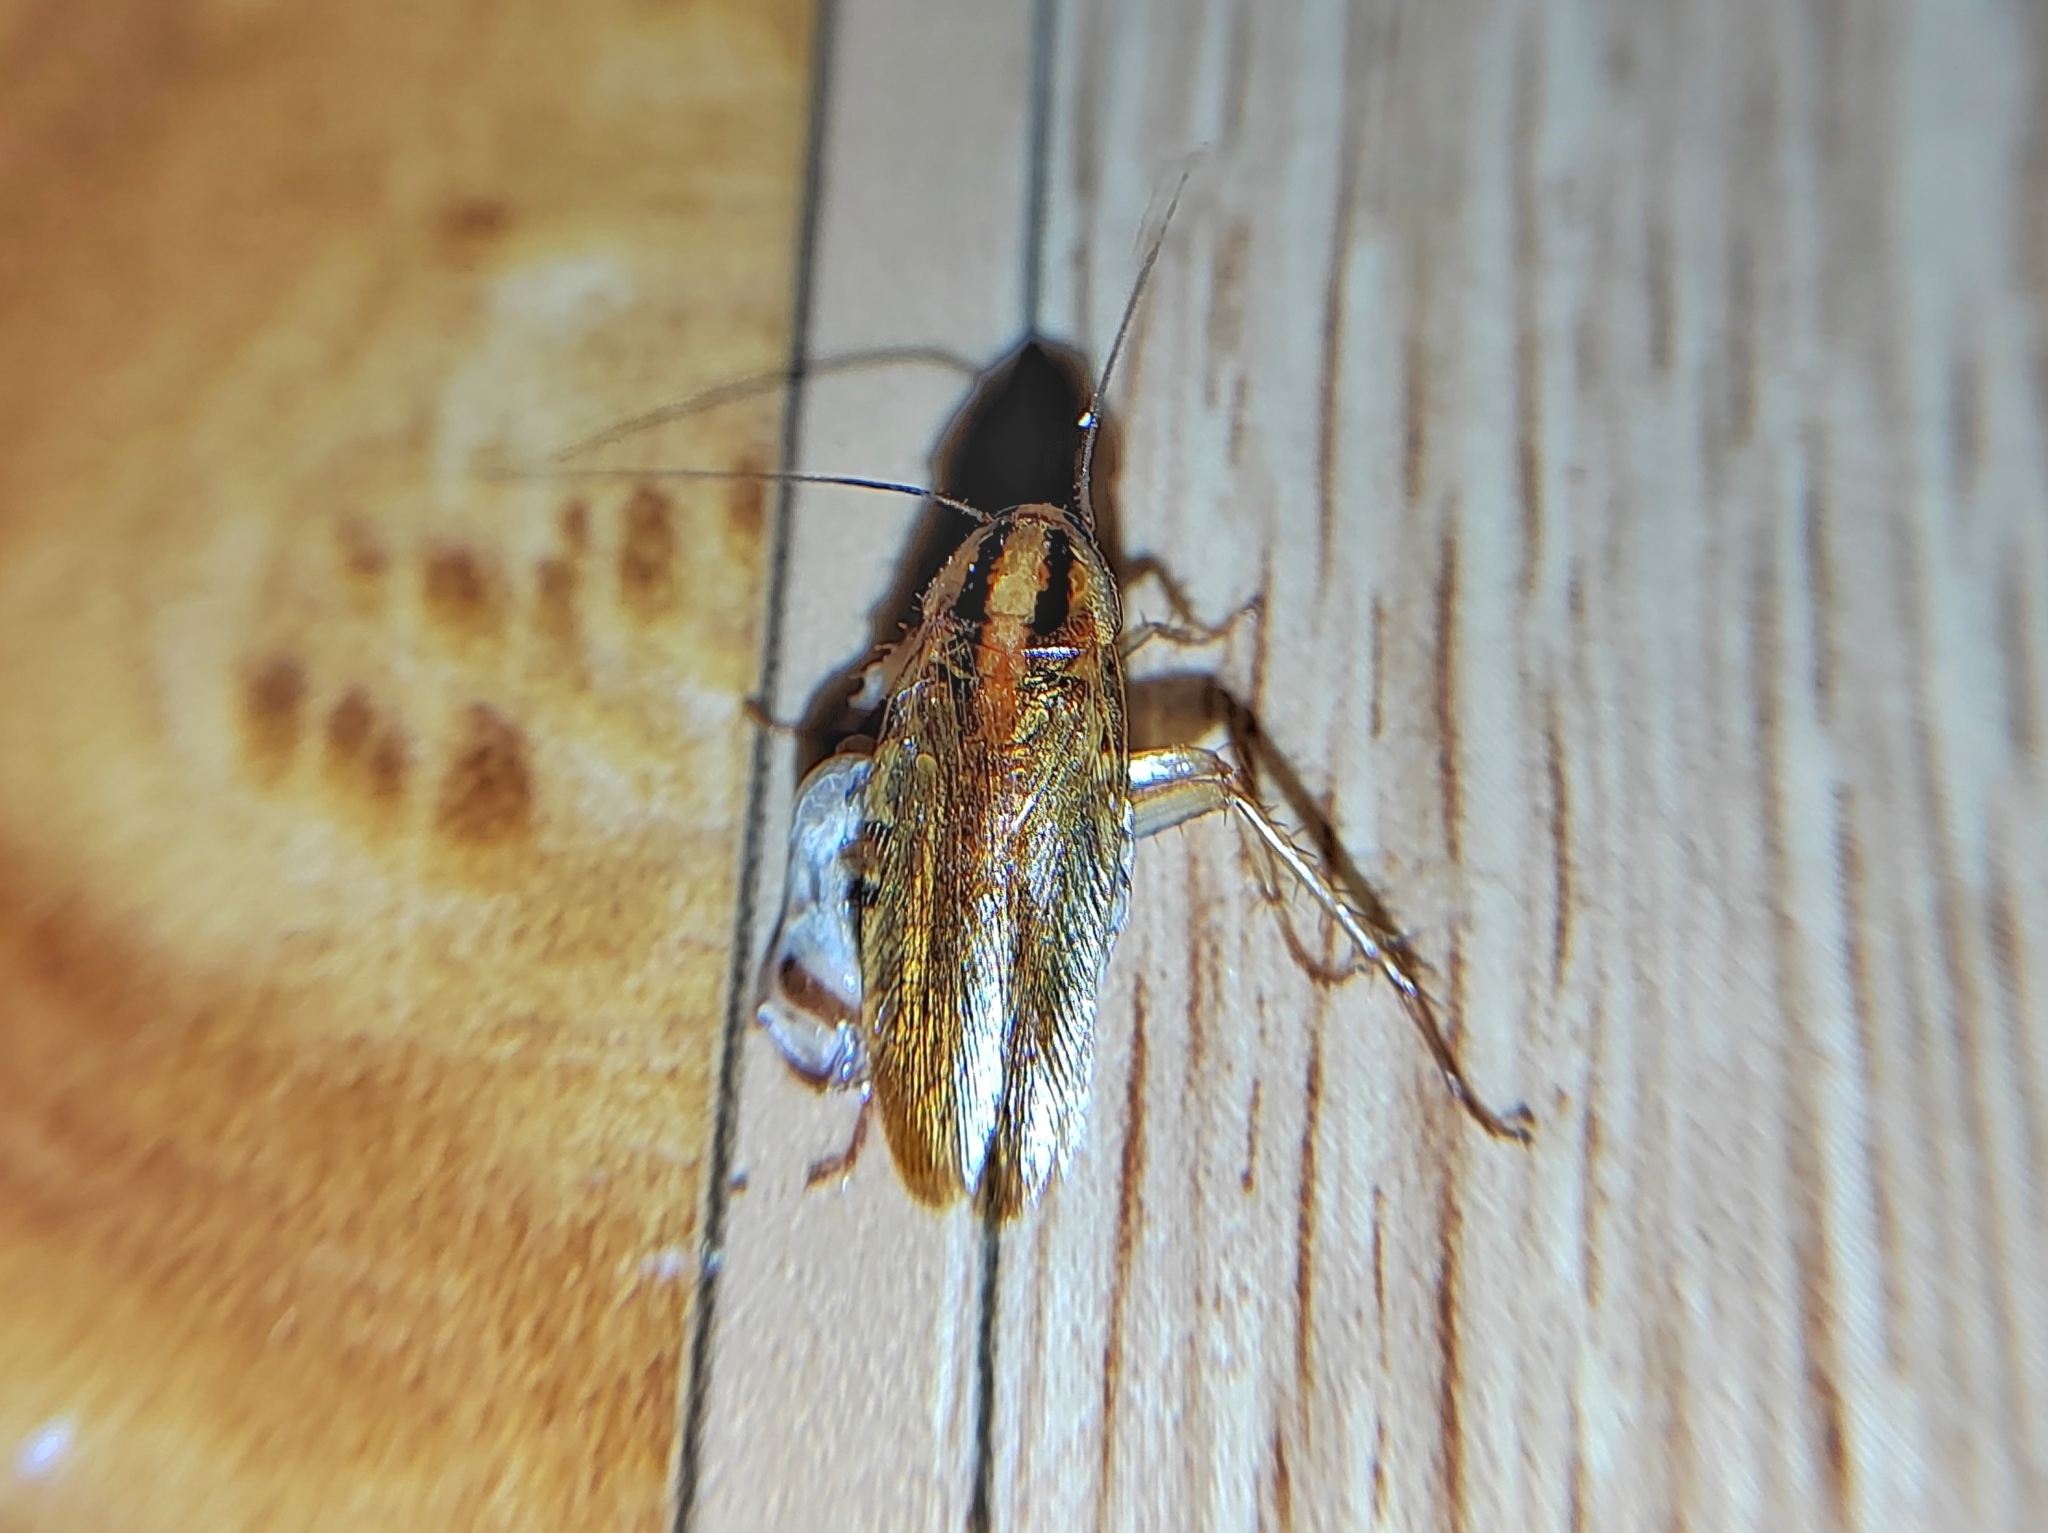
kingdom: Animalia
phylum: Arthropoda
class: Insecta
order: Blattodea
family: Ectobiidae
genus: Blattella
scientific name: Blattella germanica
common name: German cockroach
